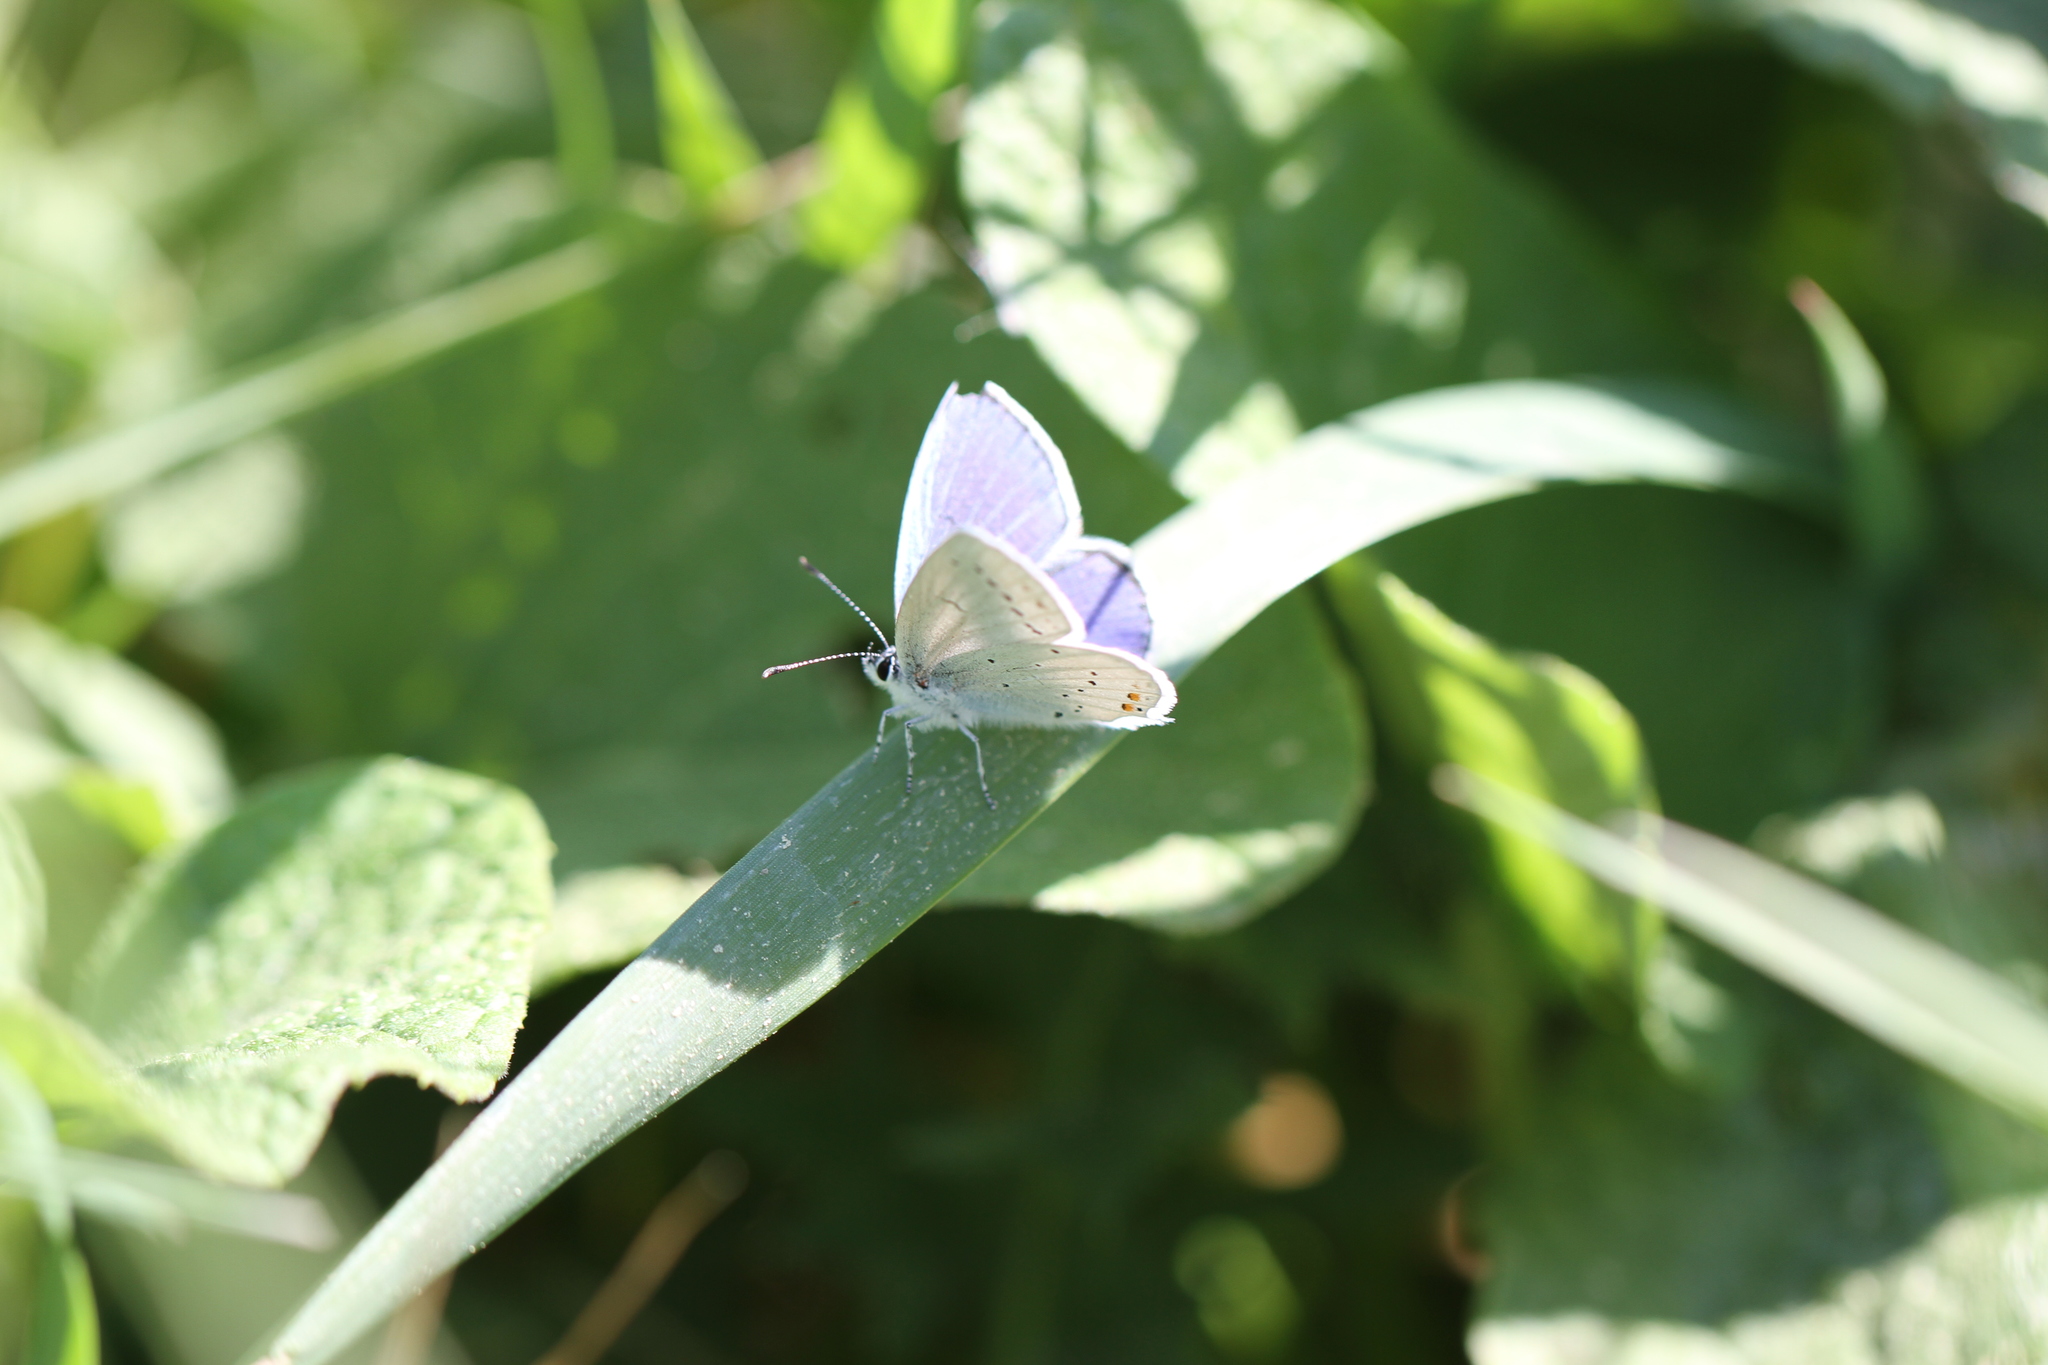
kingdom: Animalia
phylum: Arthropoda
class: Insecta
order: Lepidoptera
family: Lycaenidae
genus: Elkalyce
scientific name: Elkalyce argiades
